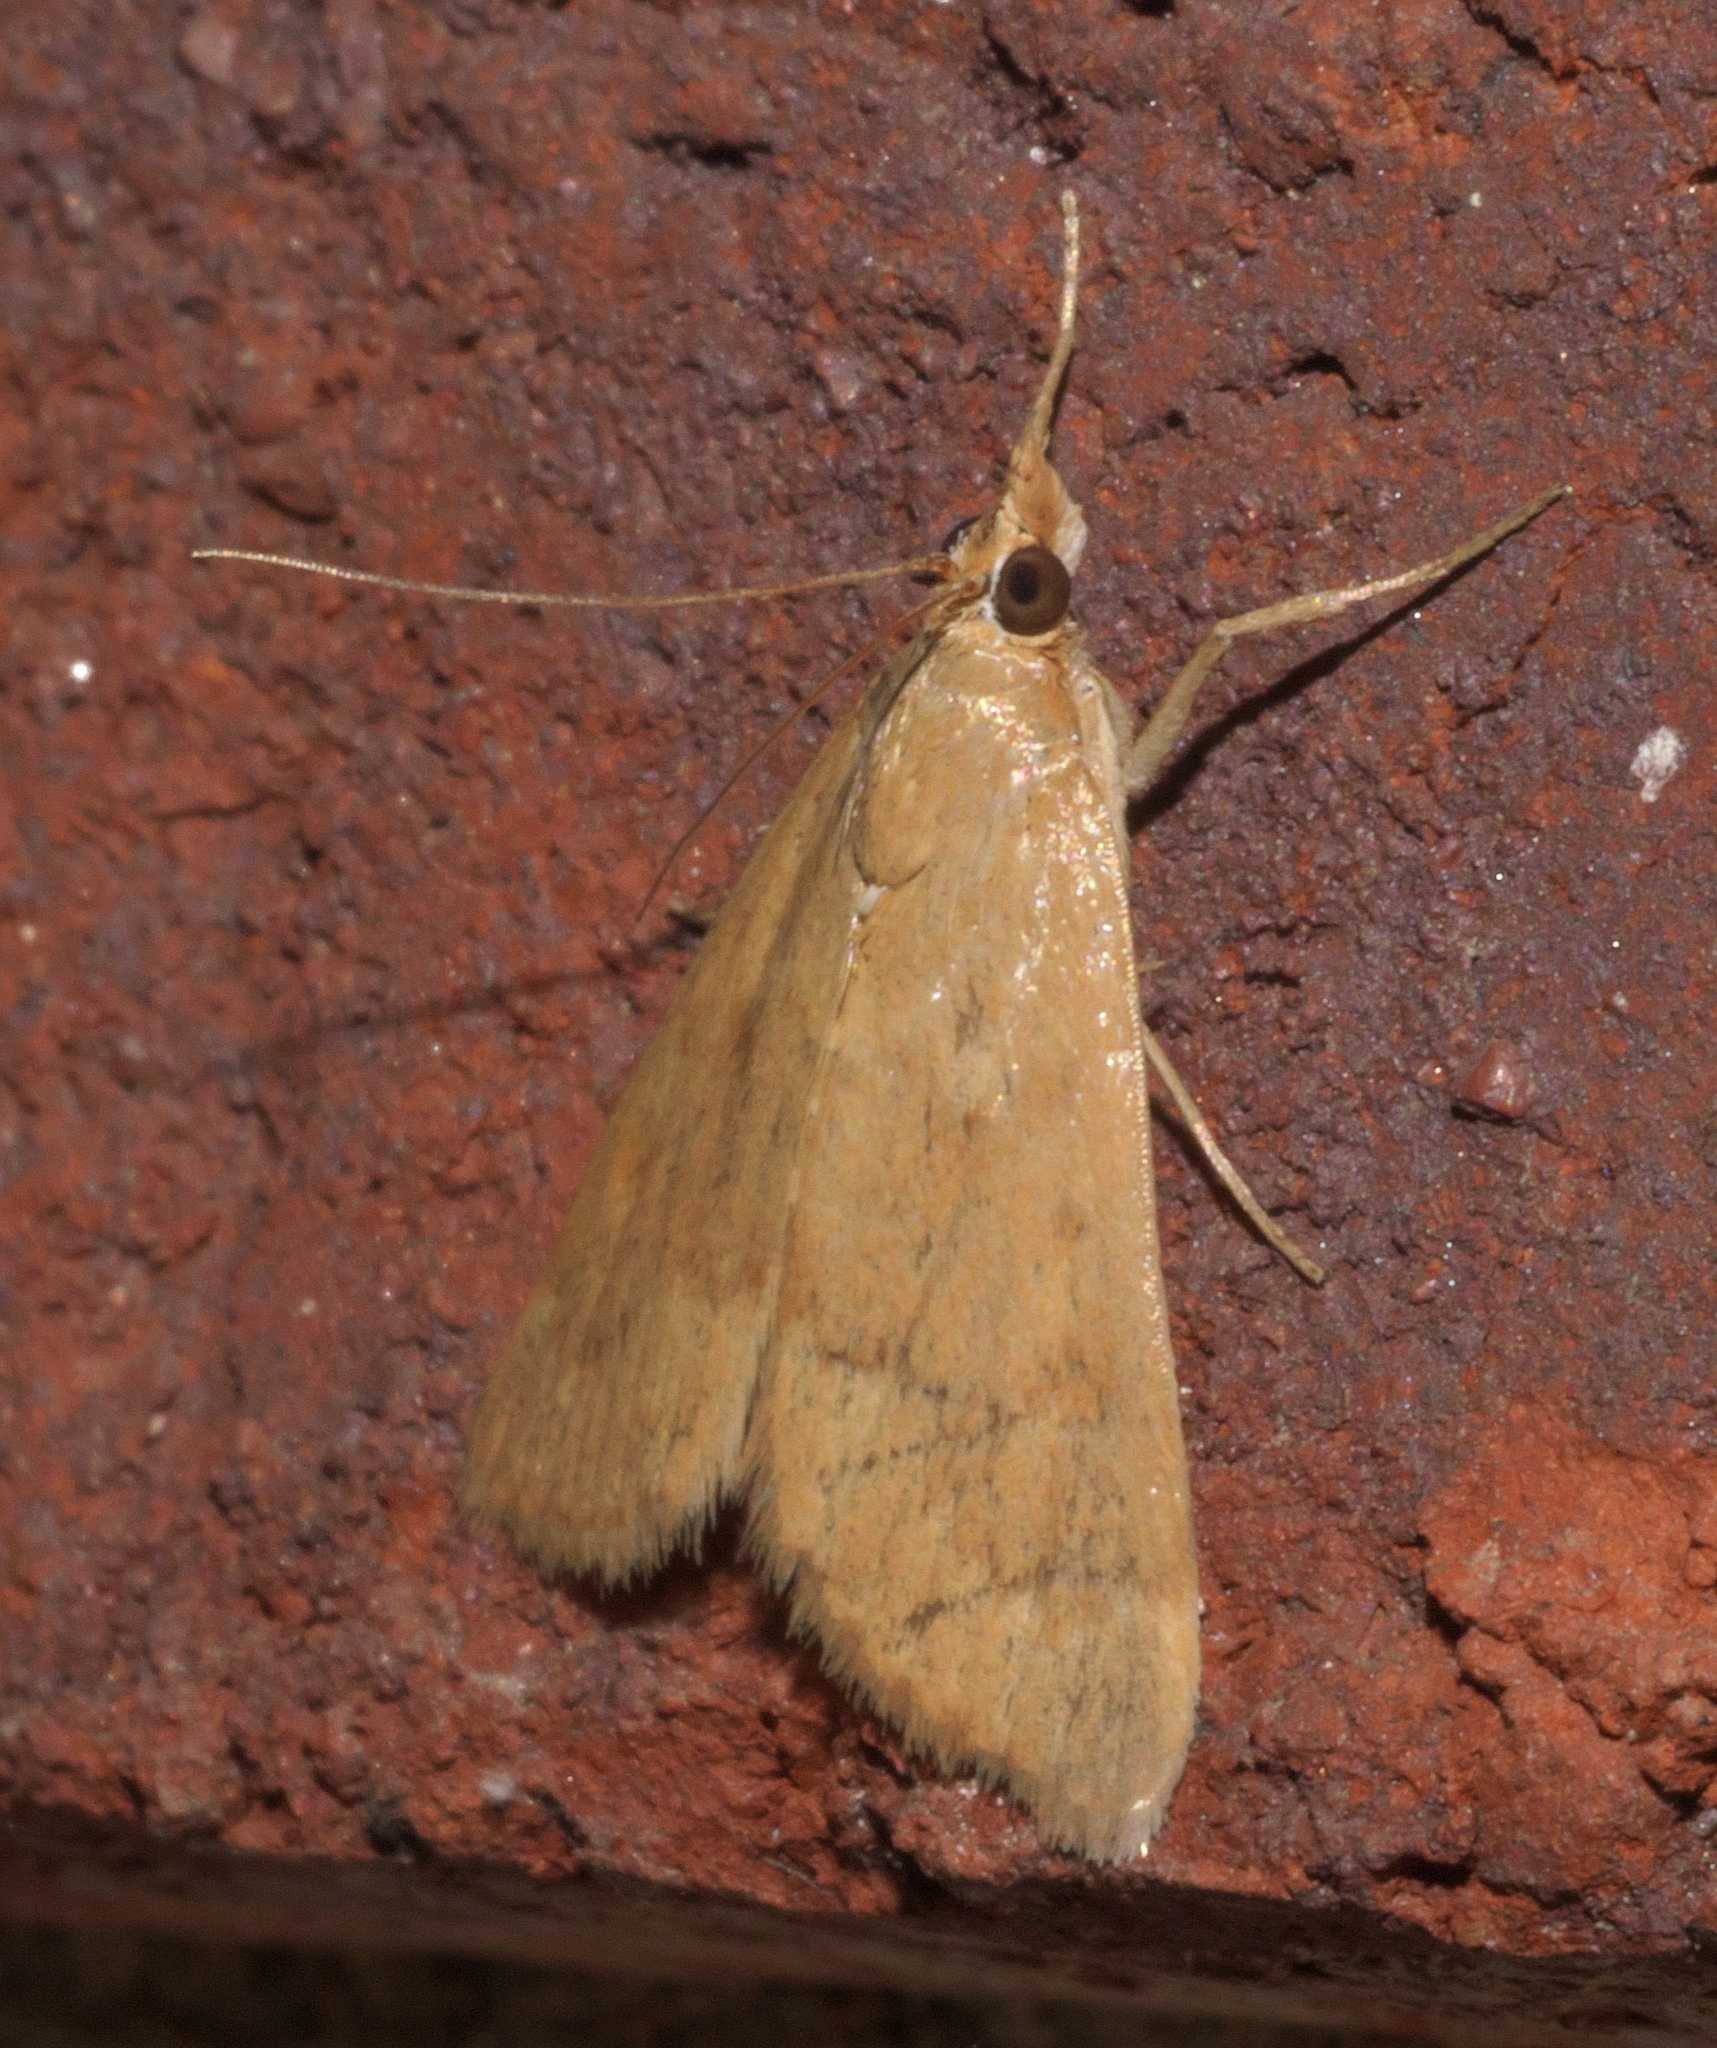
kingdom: Animalia
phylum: Arthropoda
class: Insecta
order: Lepidoptera
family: Crambidae
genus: Achyra
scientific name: Achyra rantalis
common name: Garden webworm
